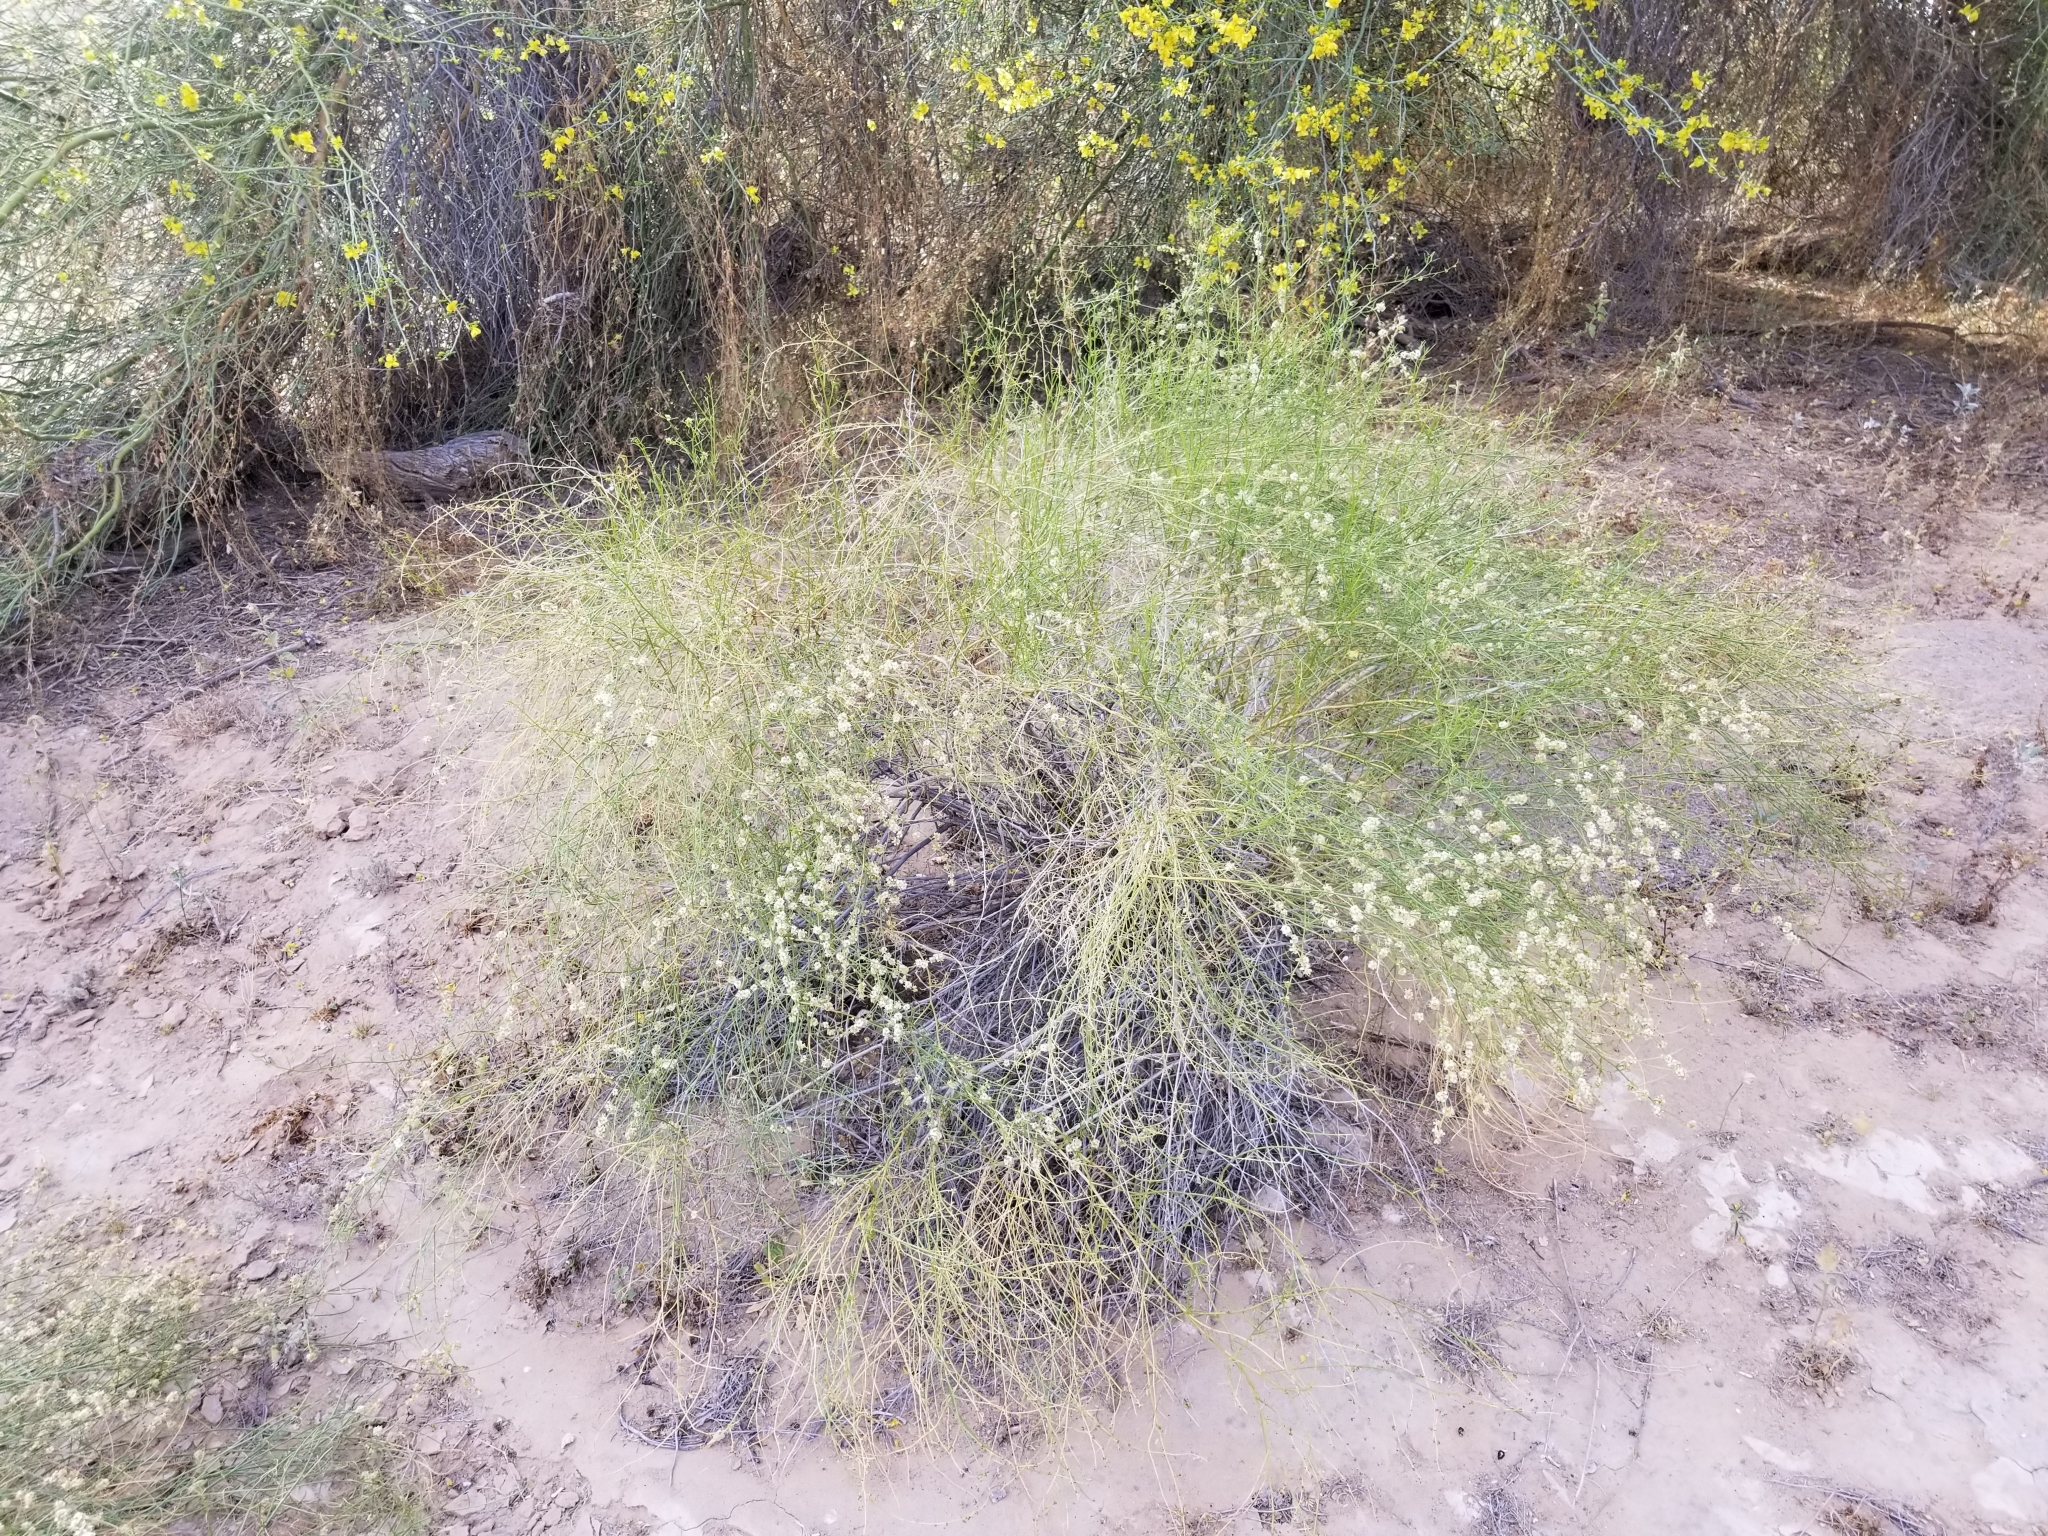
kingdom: Plantae
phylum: Tracheophyta
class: Magnoliopsida
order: Asterales
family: Asteraceae
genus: Ambrosia
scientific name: Ambrosia salsola
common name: Burrobrush
